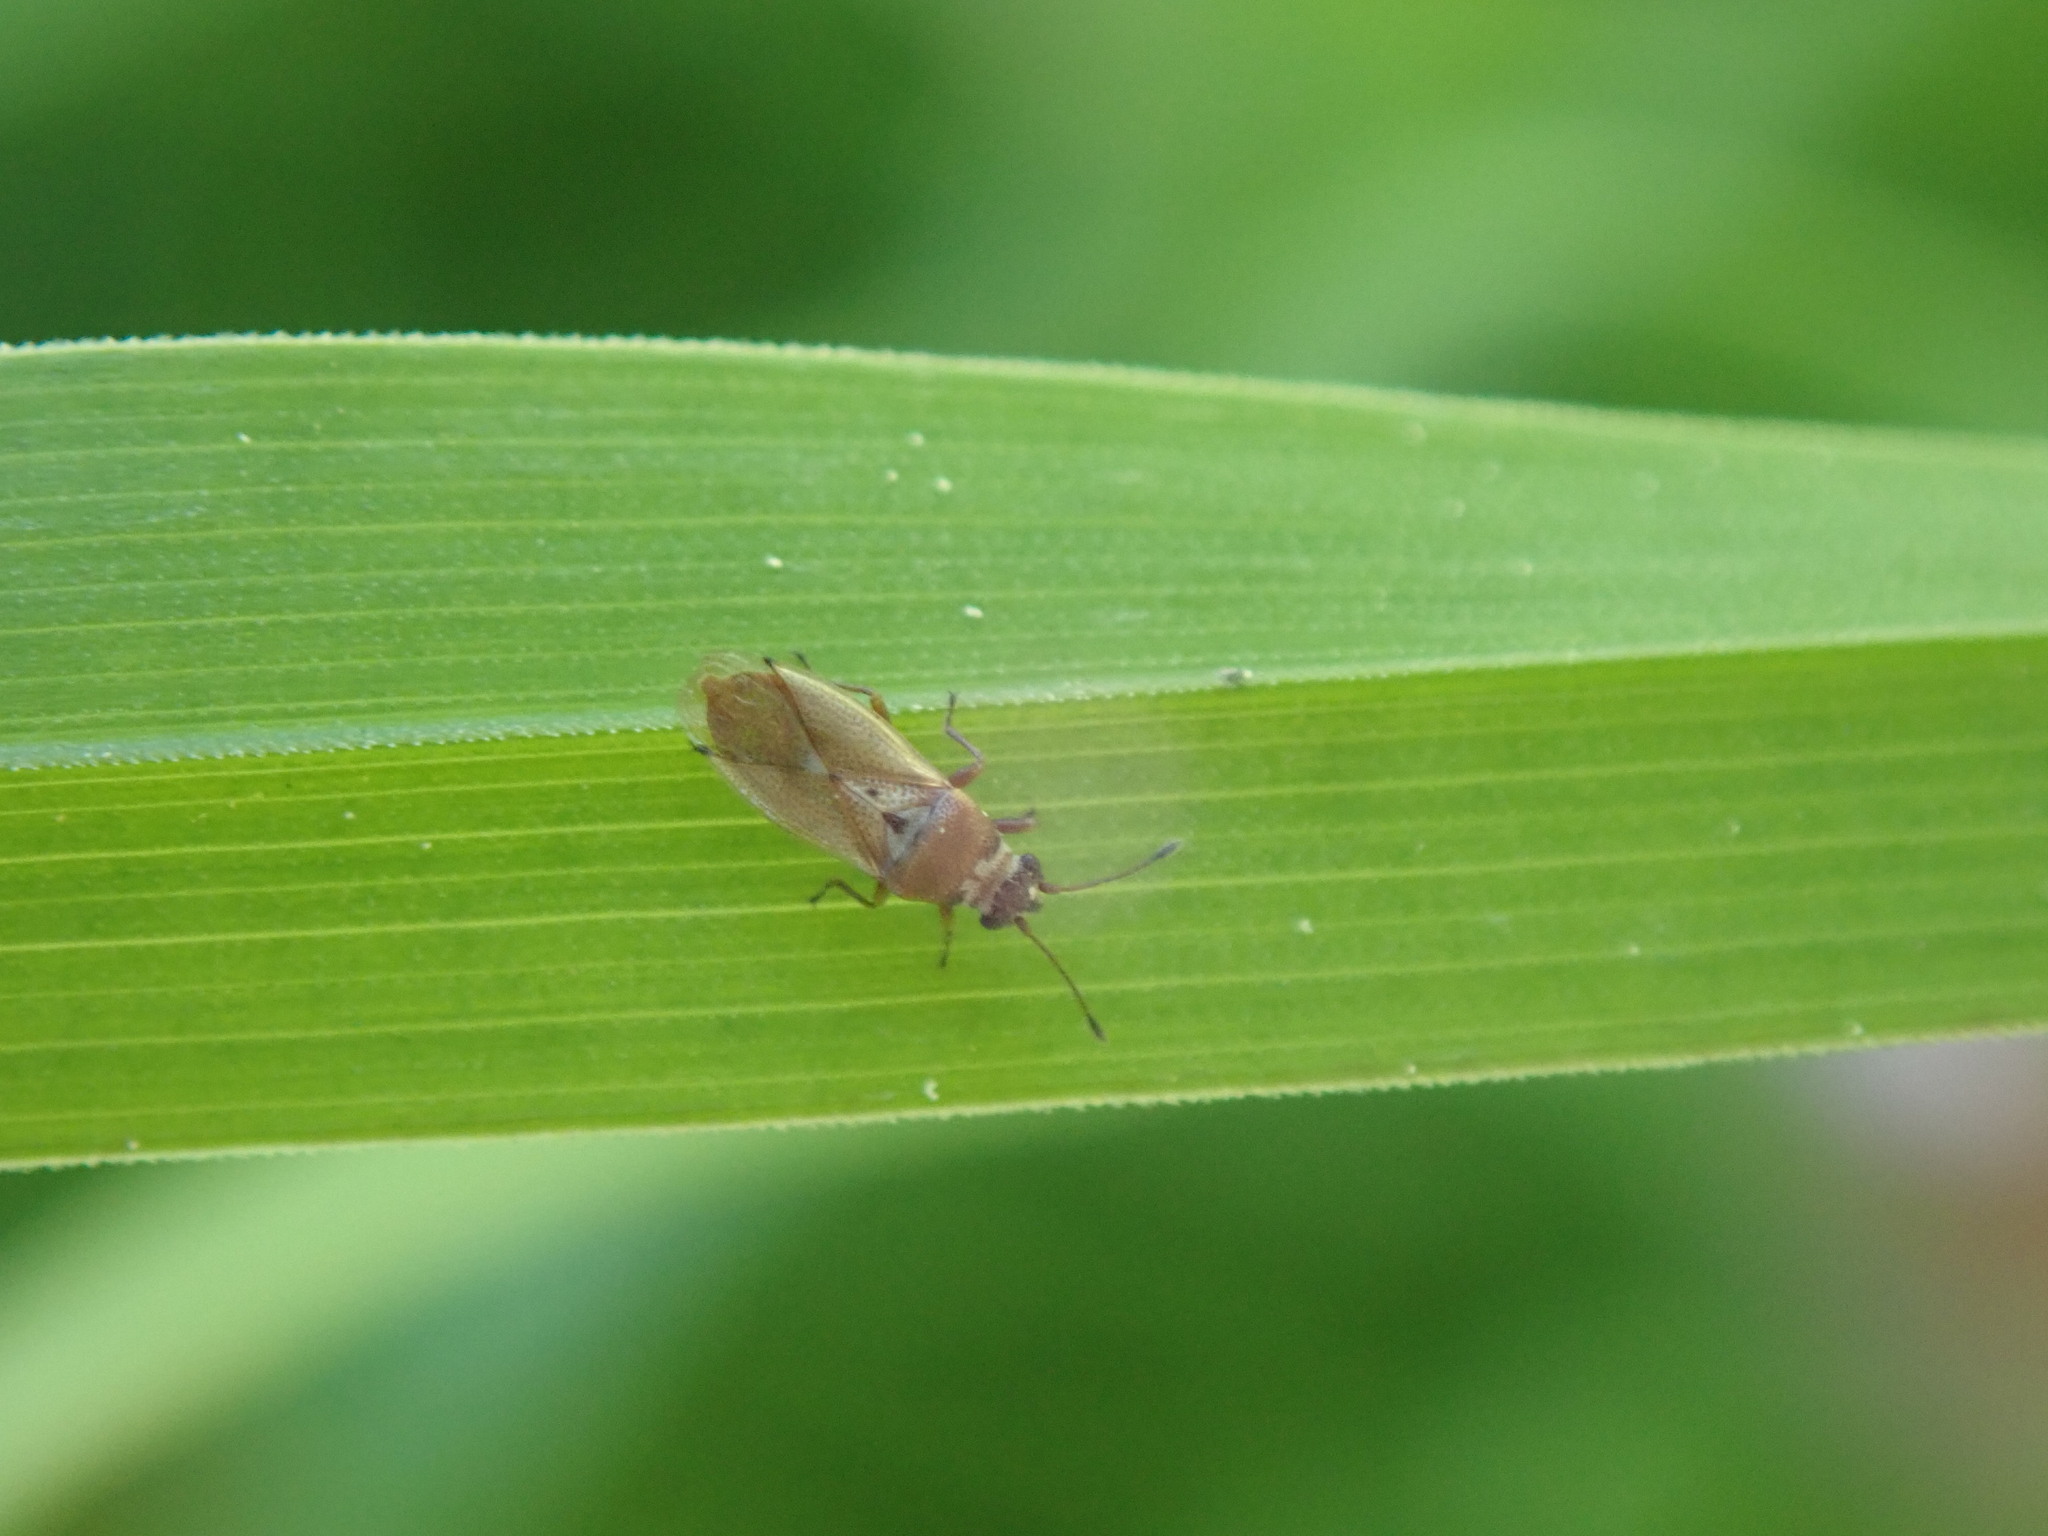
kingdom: Animalia
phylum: Arthropoda
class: Insecta
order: Hemiptera
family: Cymidae
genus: Cymus
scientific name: Cymus melanocephalus
